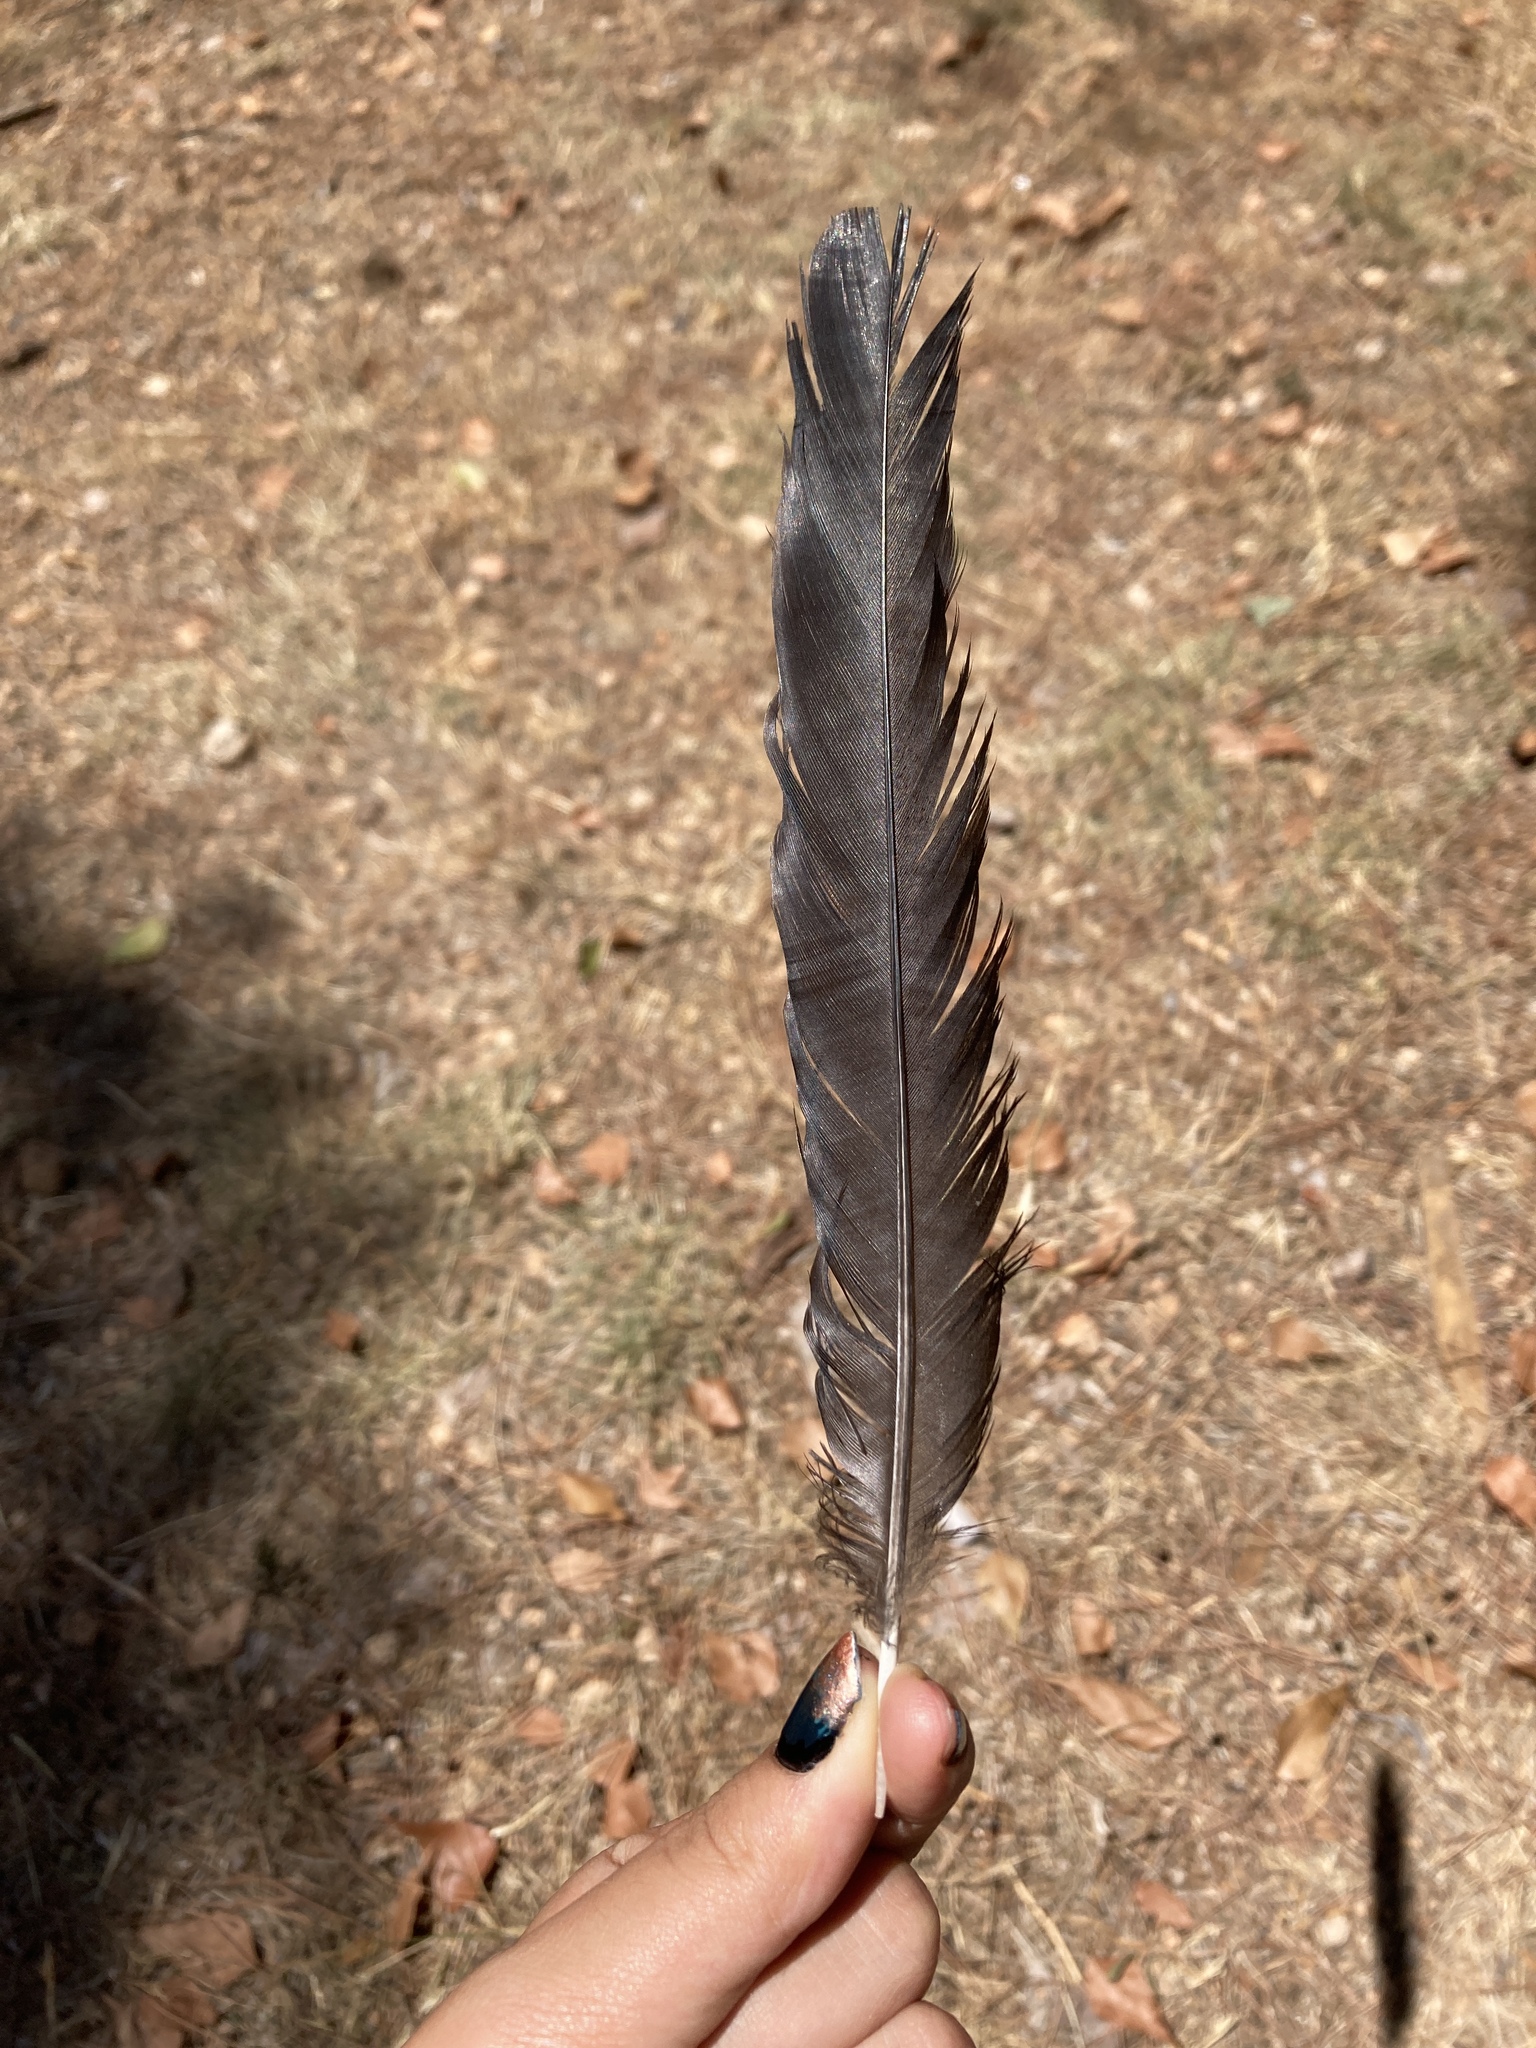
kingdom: Animalia
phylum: Chordata
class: Aves
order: Passeriformes
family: Corvidae
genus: Pica
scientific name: Pica pica
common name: Eurasian magpie
